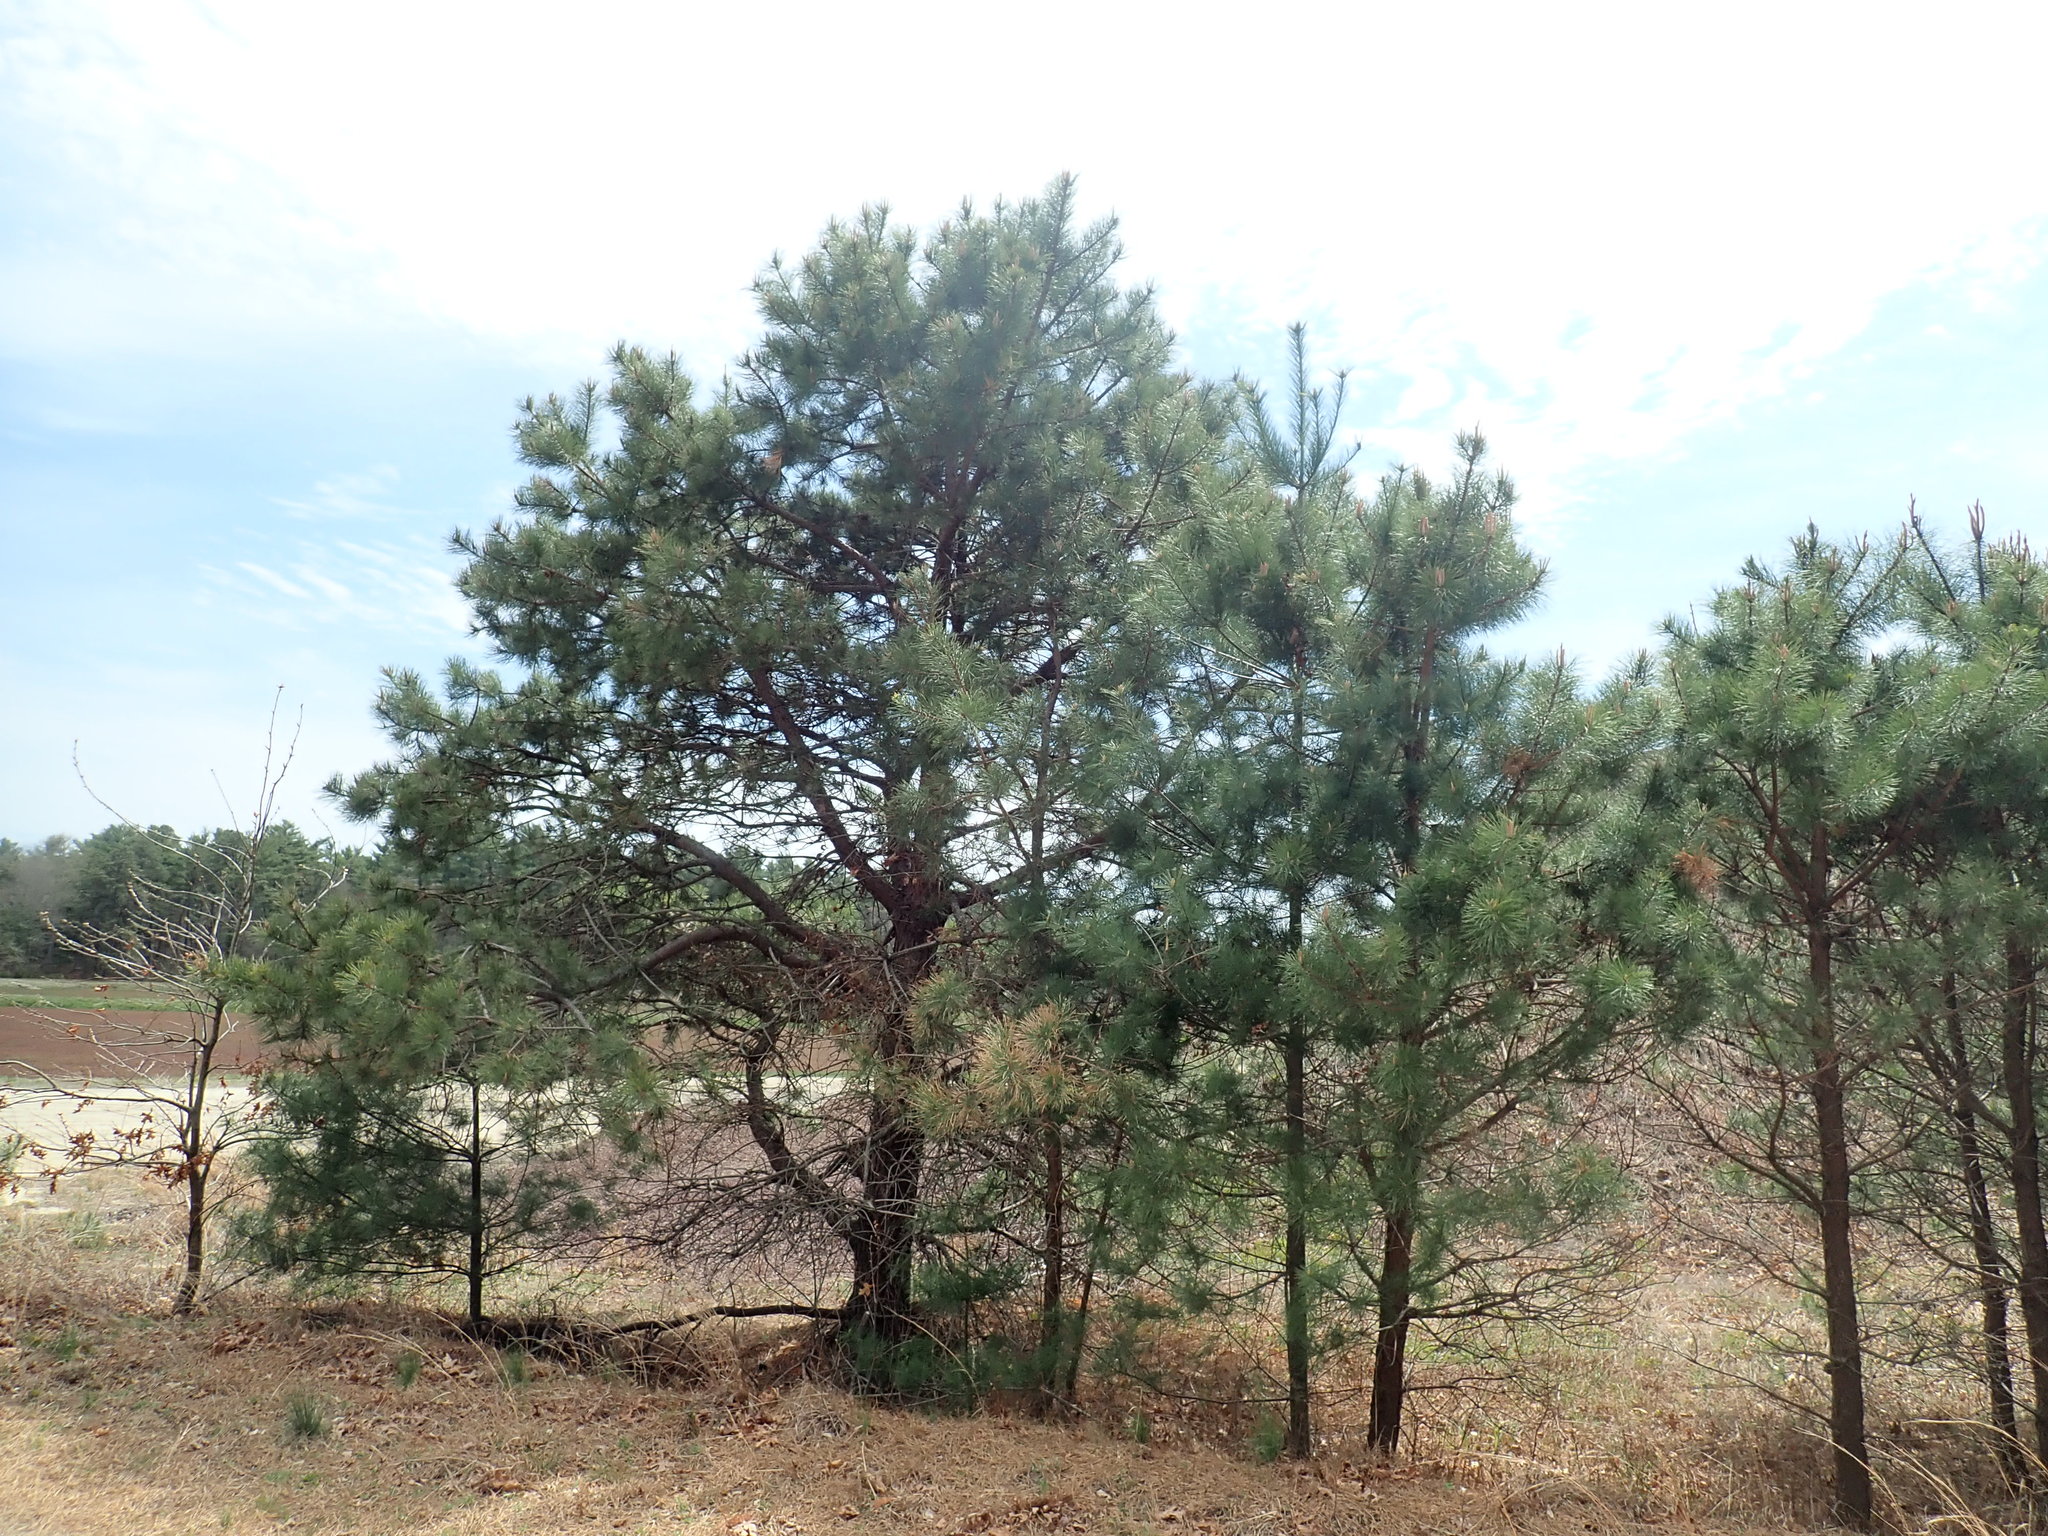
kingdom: Plantae
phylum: Tracheophyta
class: Pinopsida
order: Pinales
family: Pinaceae
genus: Pinus
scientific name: Pinus rigida
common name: Pitch pine
